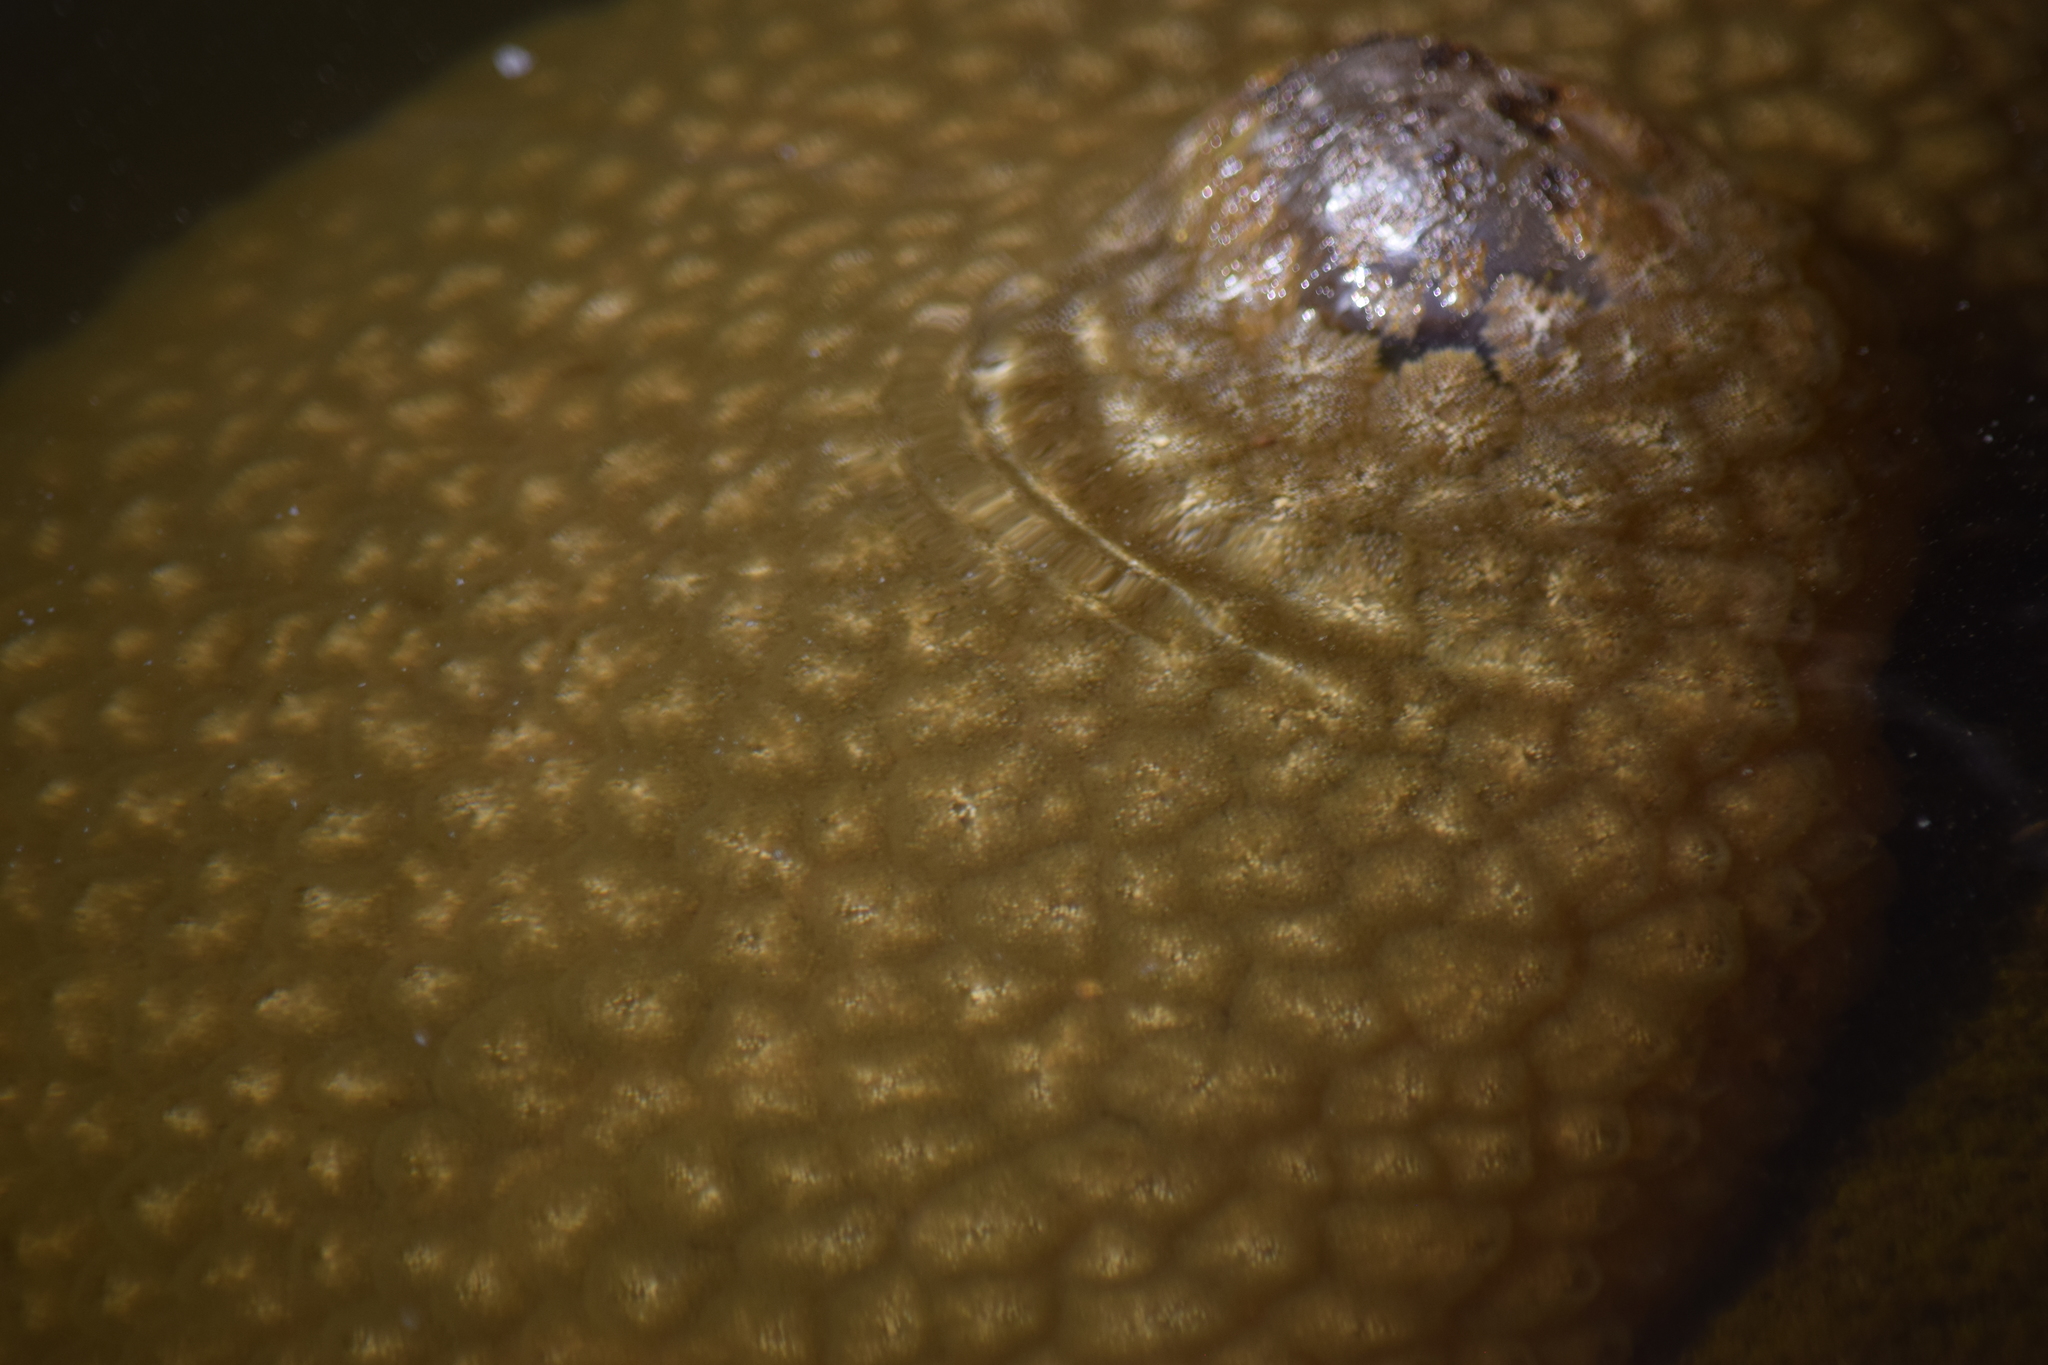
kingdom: Animalia
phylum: Bryozoa
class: Phylactolaemata
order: Plumatellida
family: Pectinatellidae
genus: Pectinatella
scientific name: Pectinatella magnifica
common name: Magnificent bryozoan
